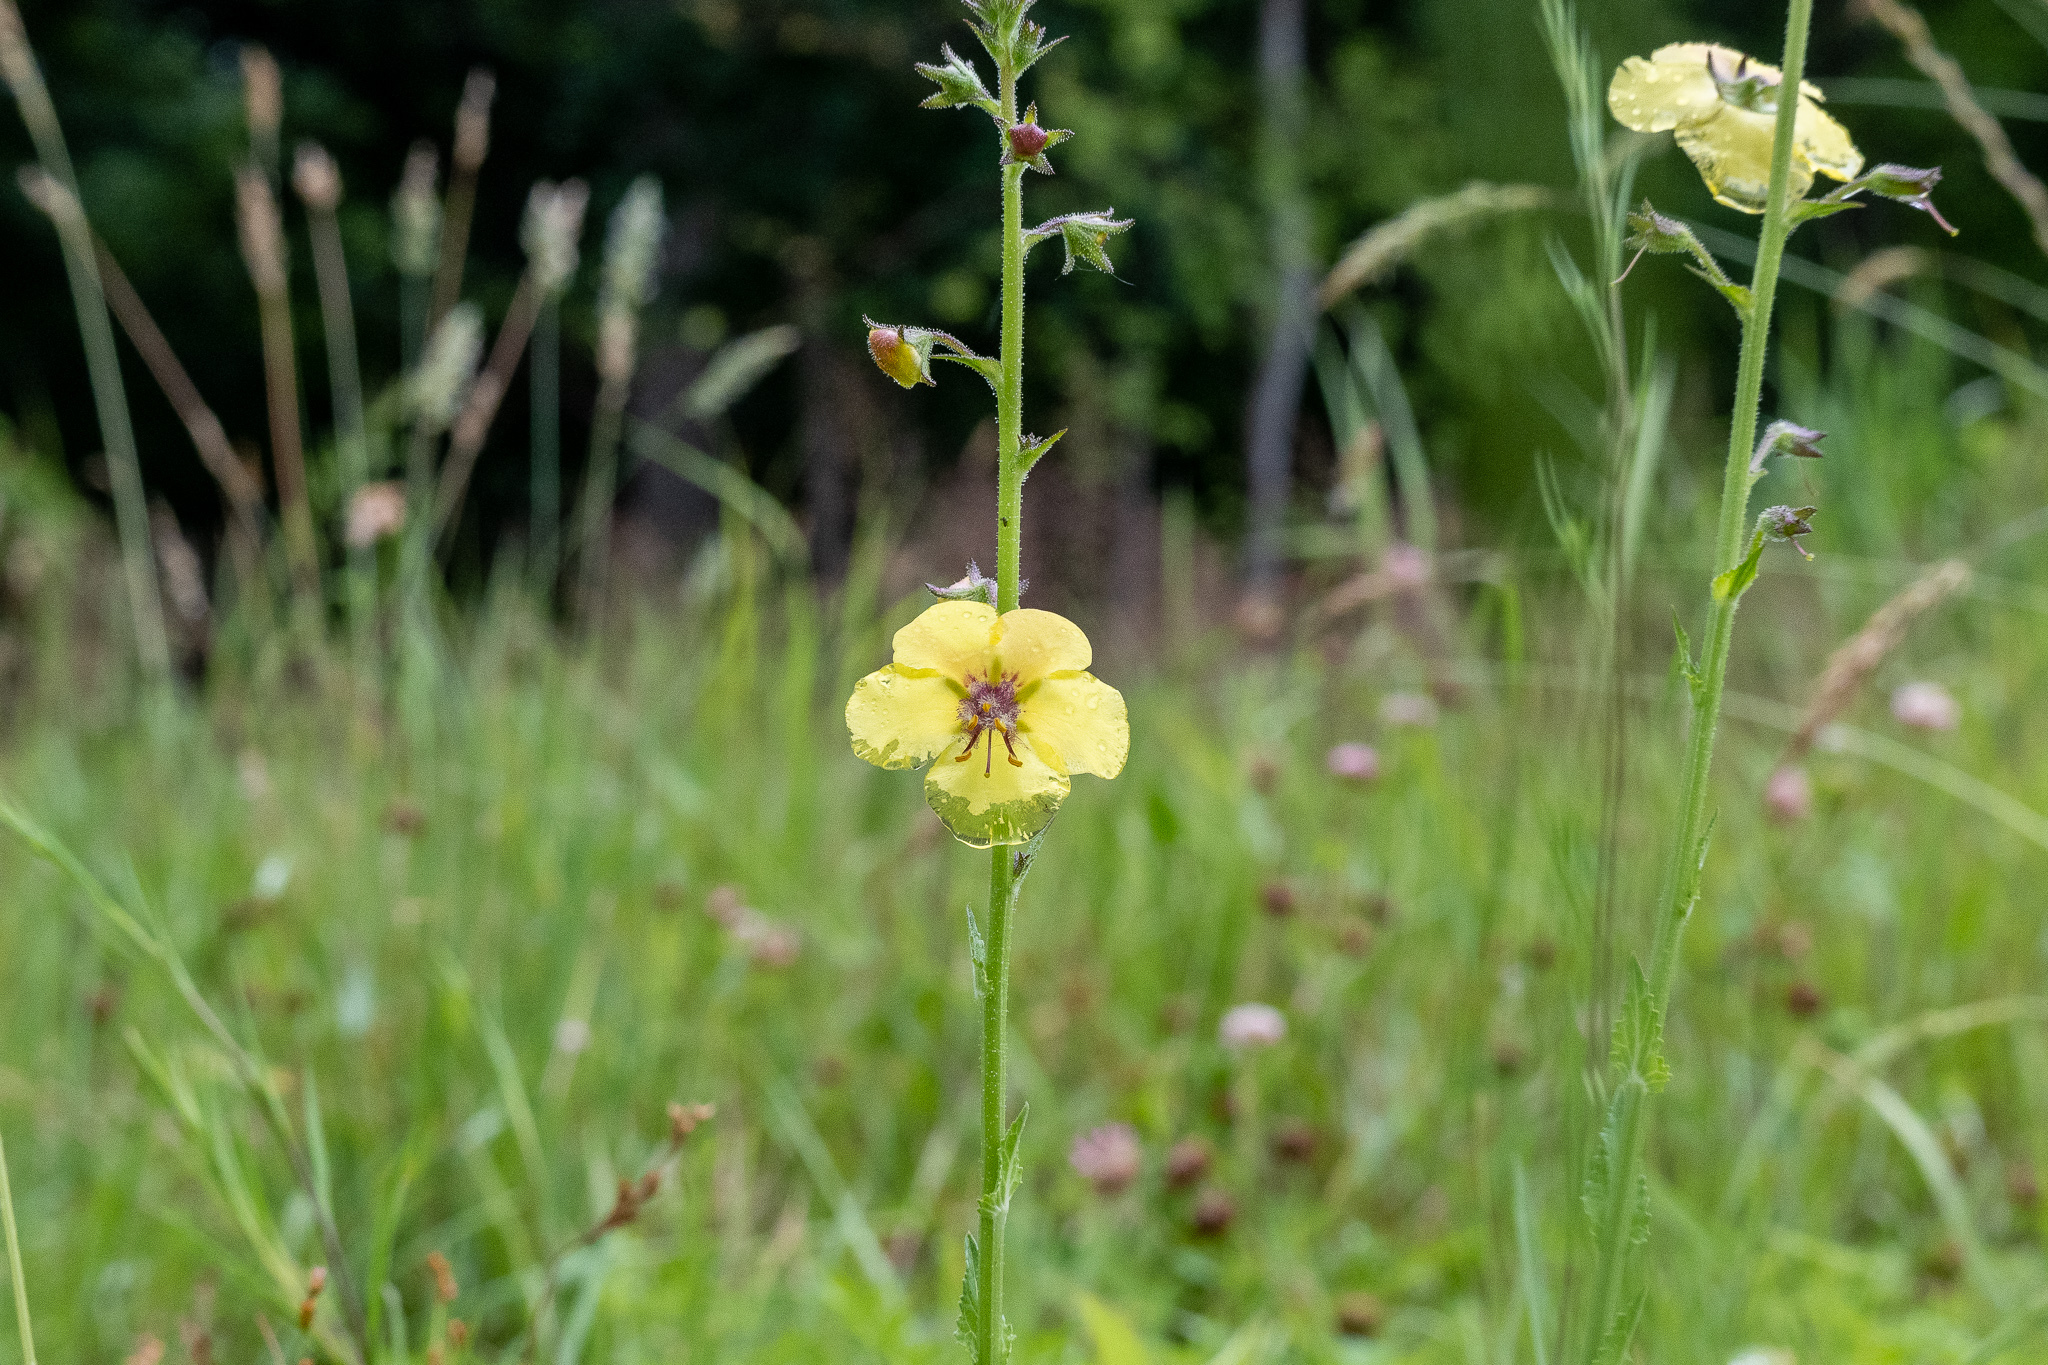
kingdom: Plantae
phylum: Tracheophyta
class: Magnoliopsida
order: Lamiales
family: Scrophulariaceae
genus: Verbascum
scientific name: Verbascum blattaria
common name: Moth mullein
